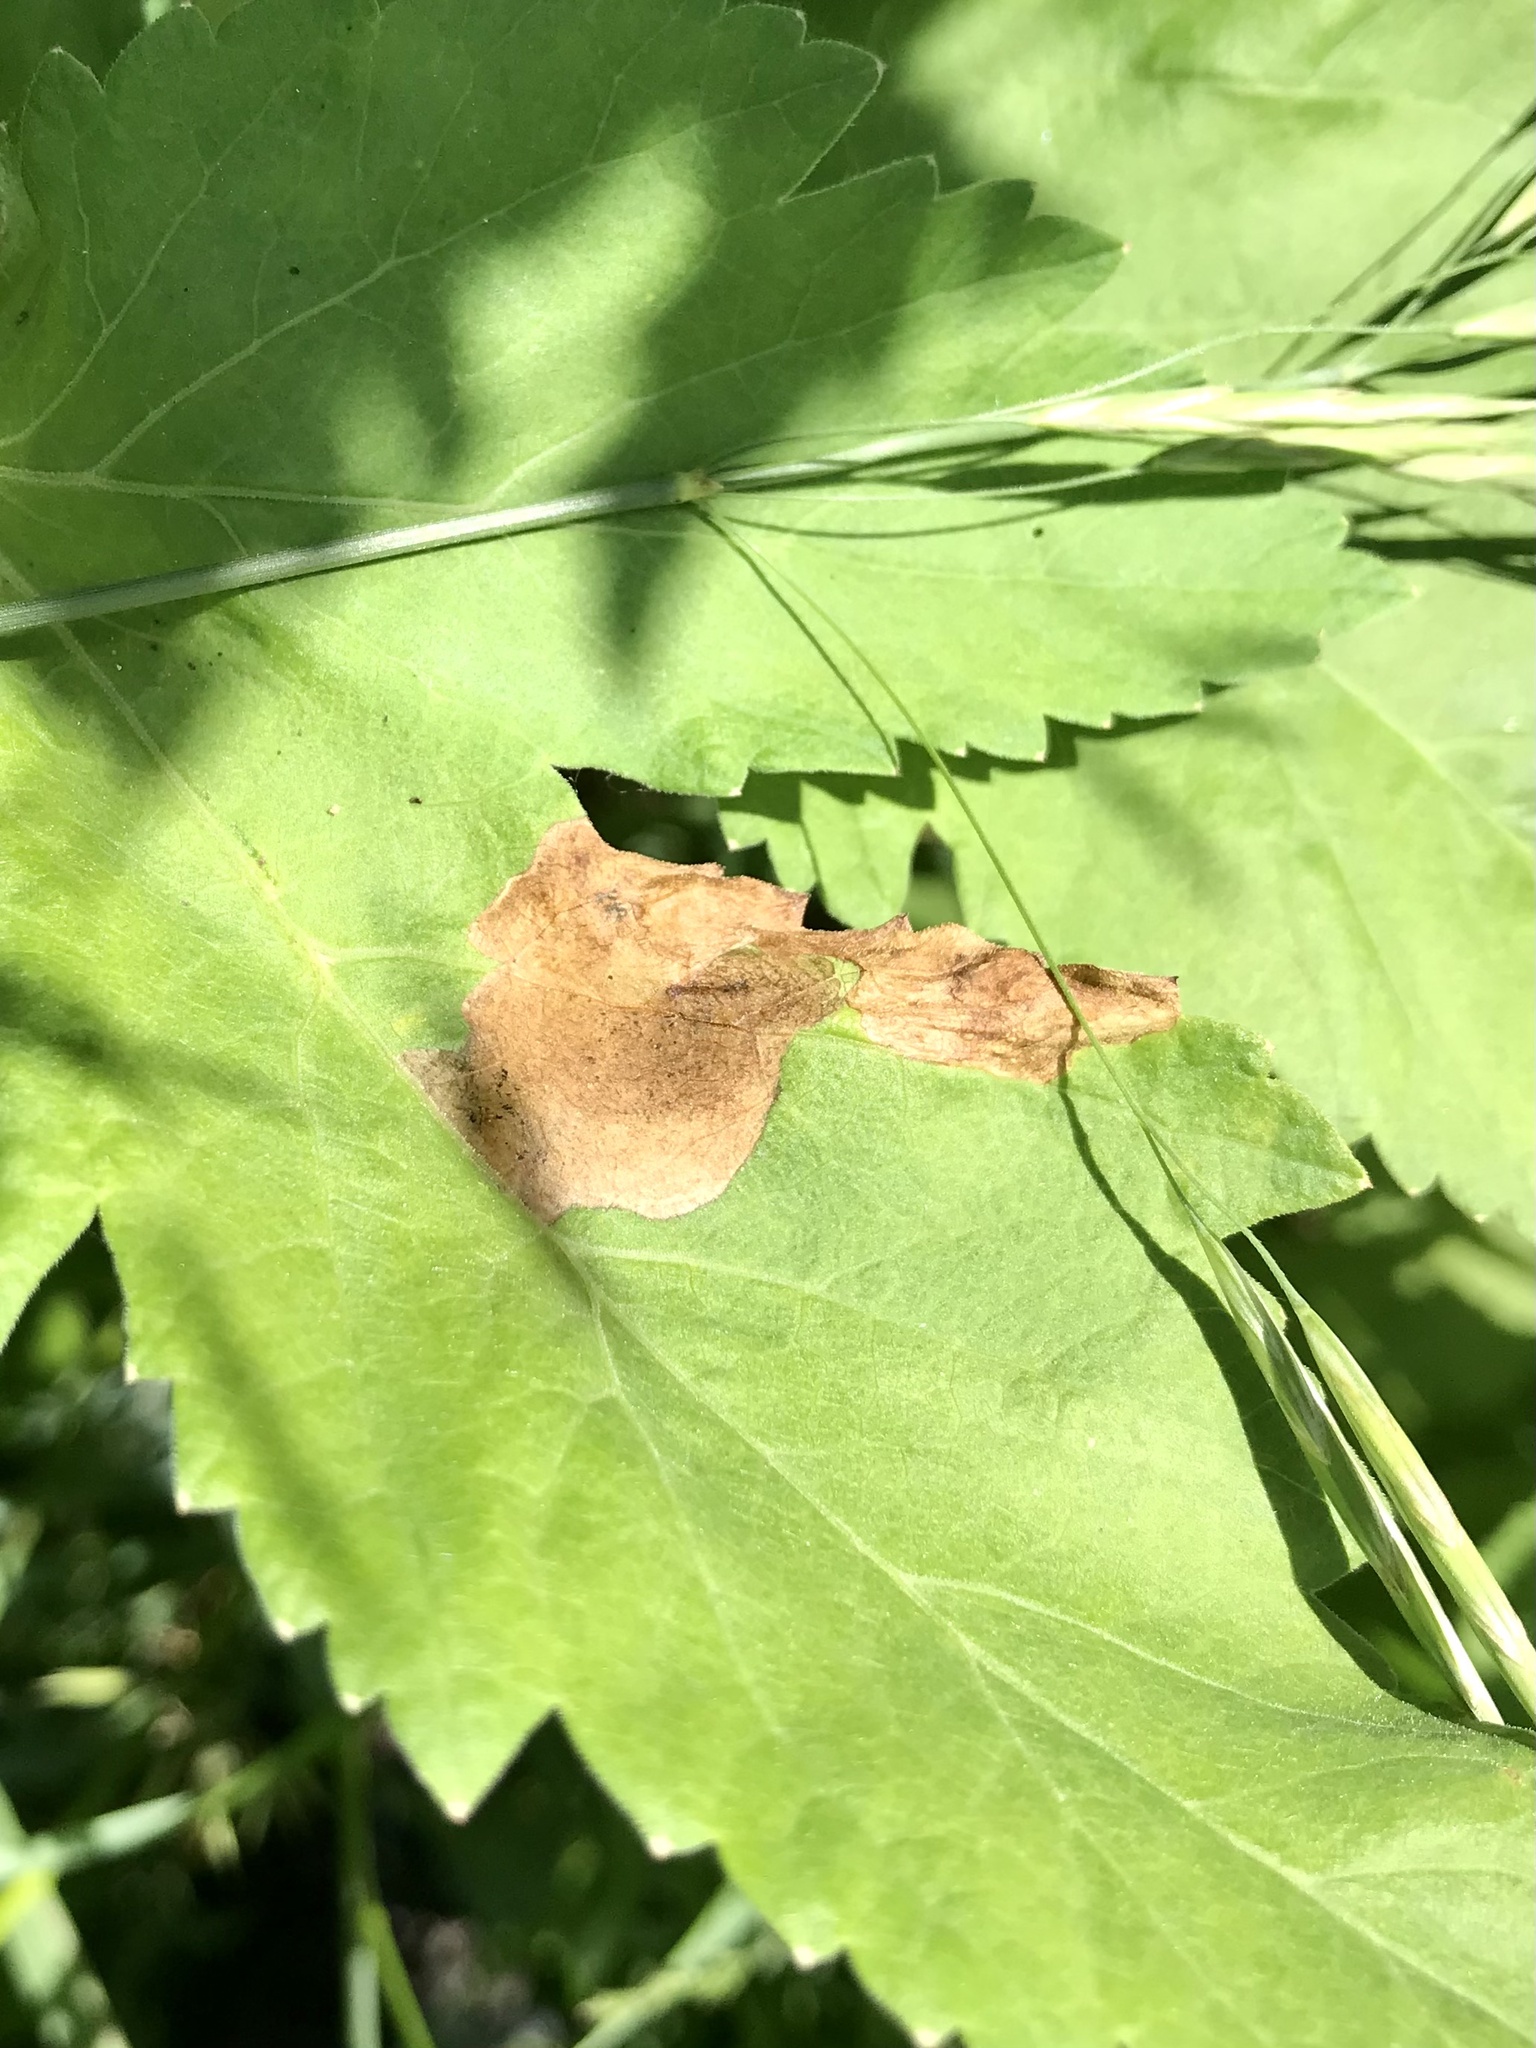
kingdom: Animalia
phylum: Arthropoda
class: Insecta
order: Diptera
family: Tephritidae
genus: Euleia
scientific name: Euleia fratria
